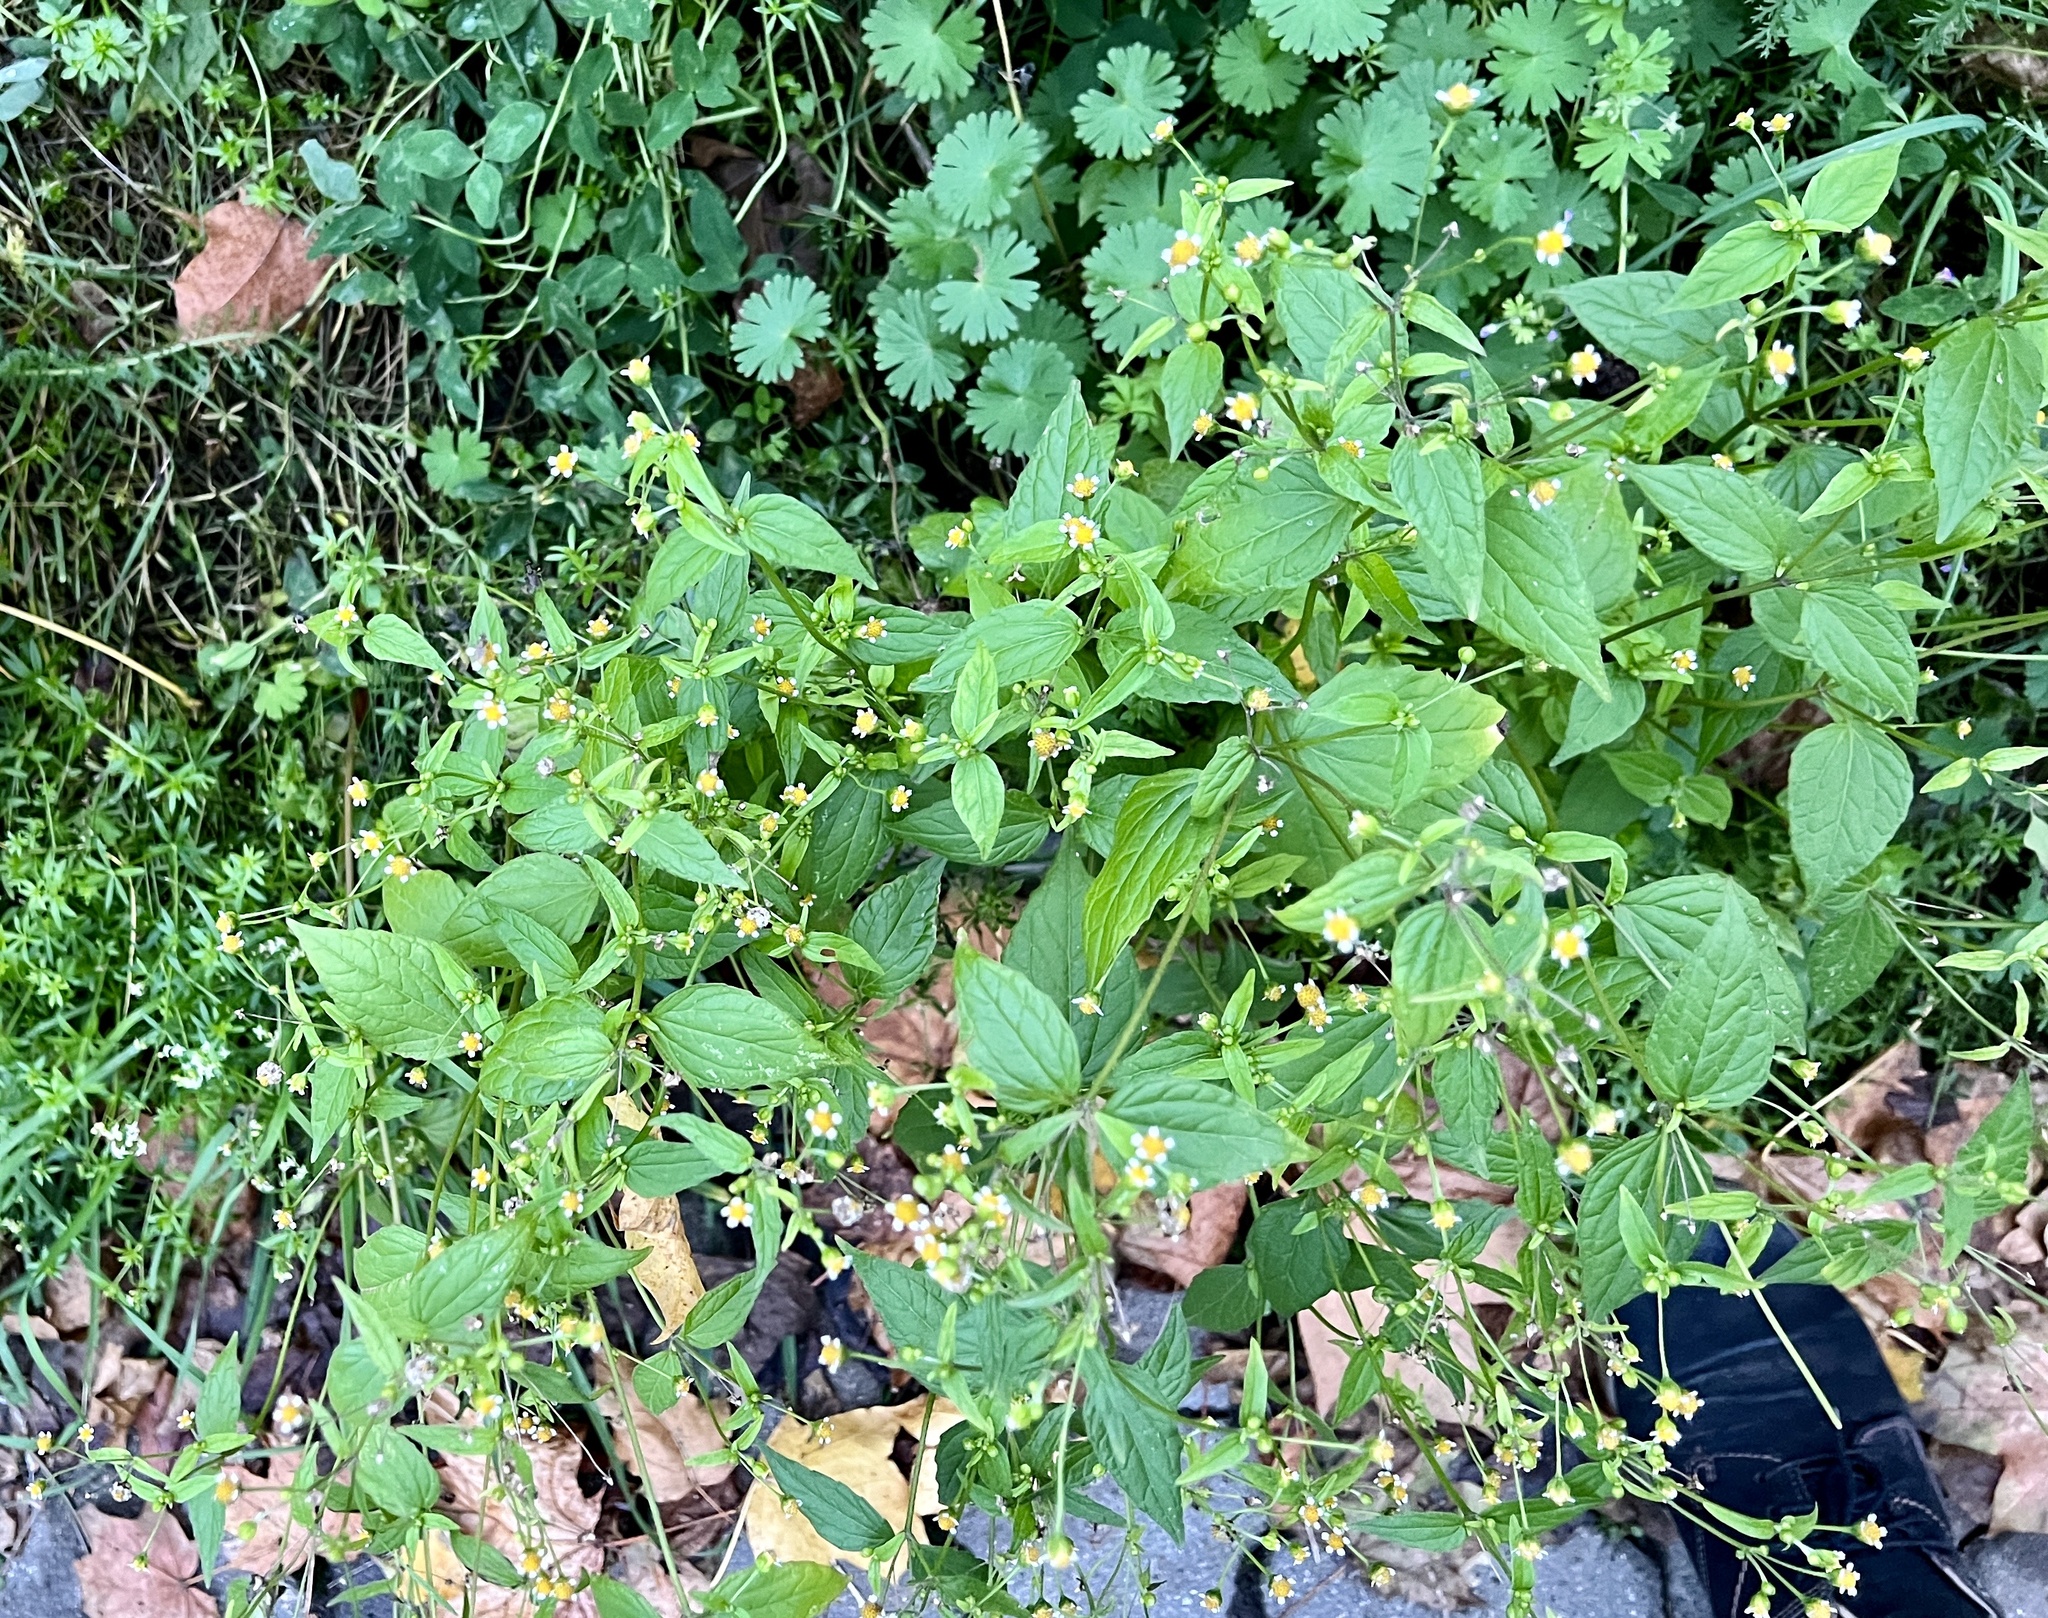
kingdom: Plantae
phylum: Tracheophyta
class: Magnoliopsida
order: Asterales
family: Asteraceae
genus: Galinsoga
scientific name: Galinsoga parviflora
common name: Gallant soldier
